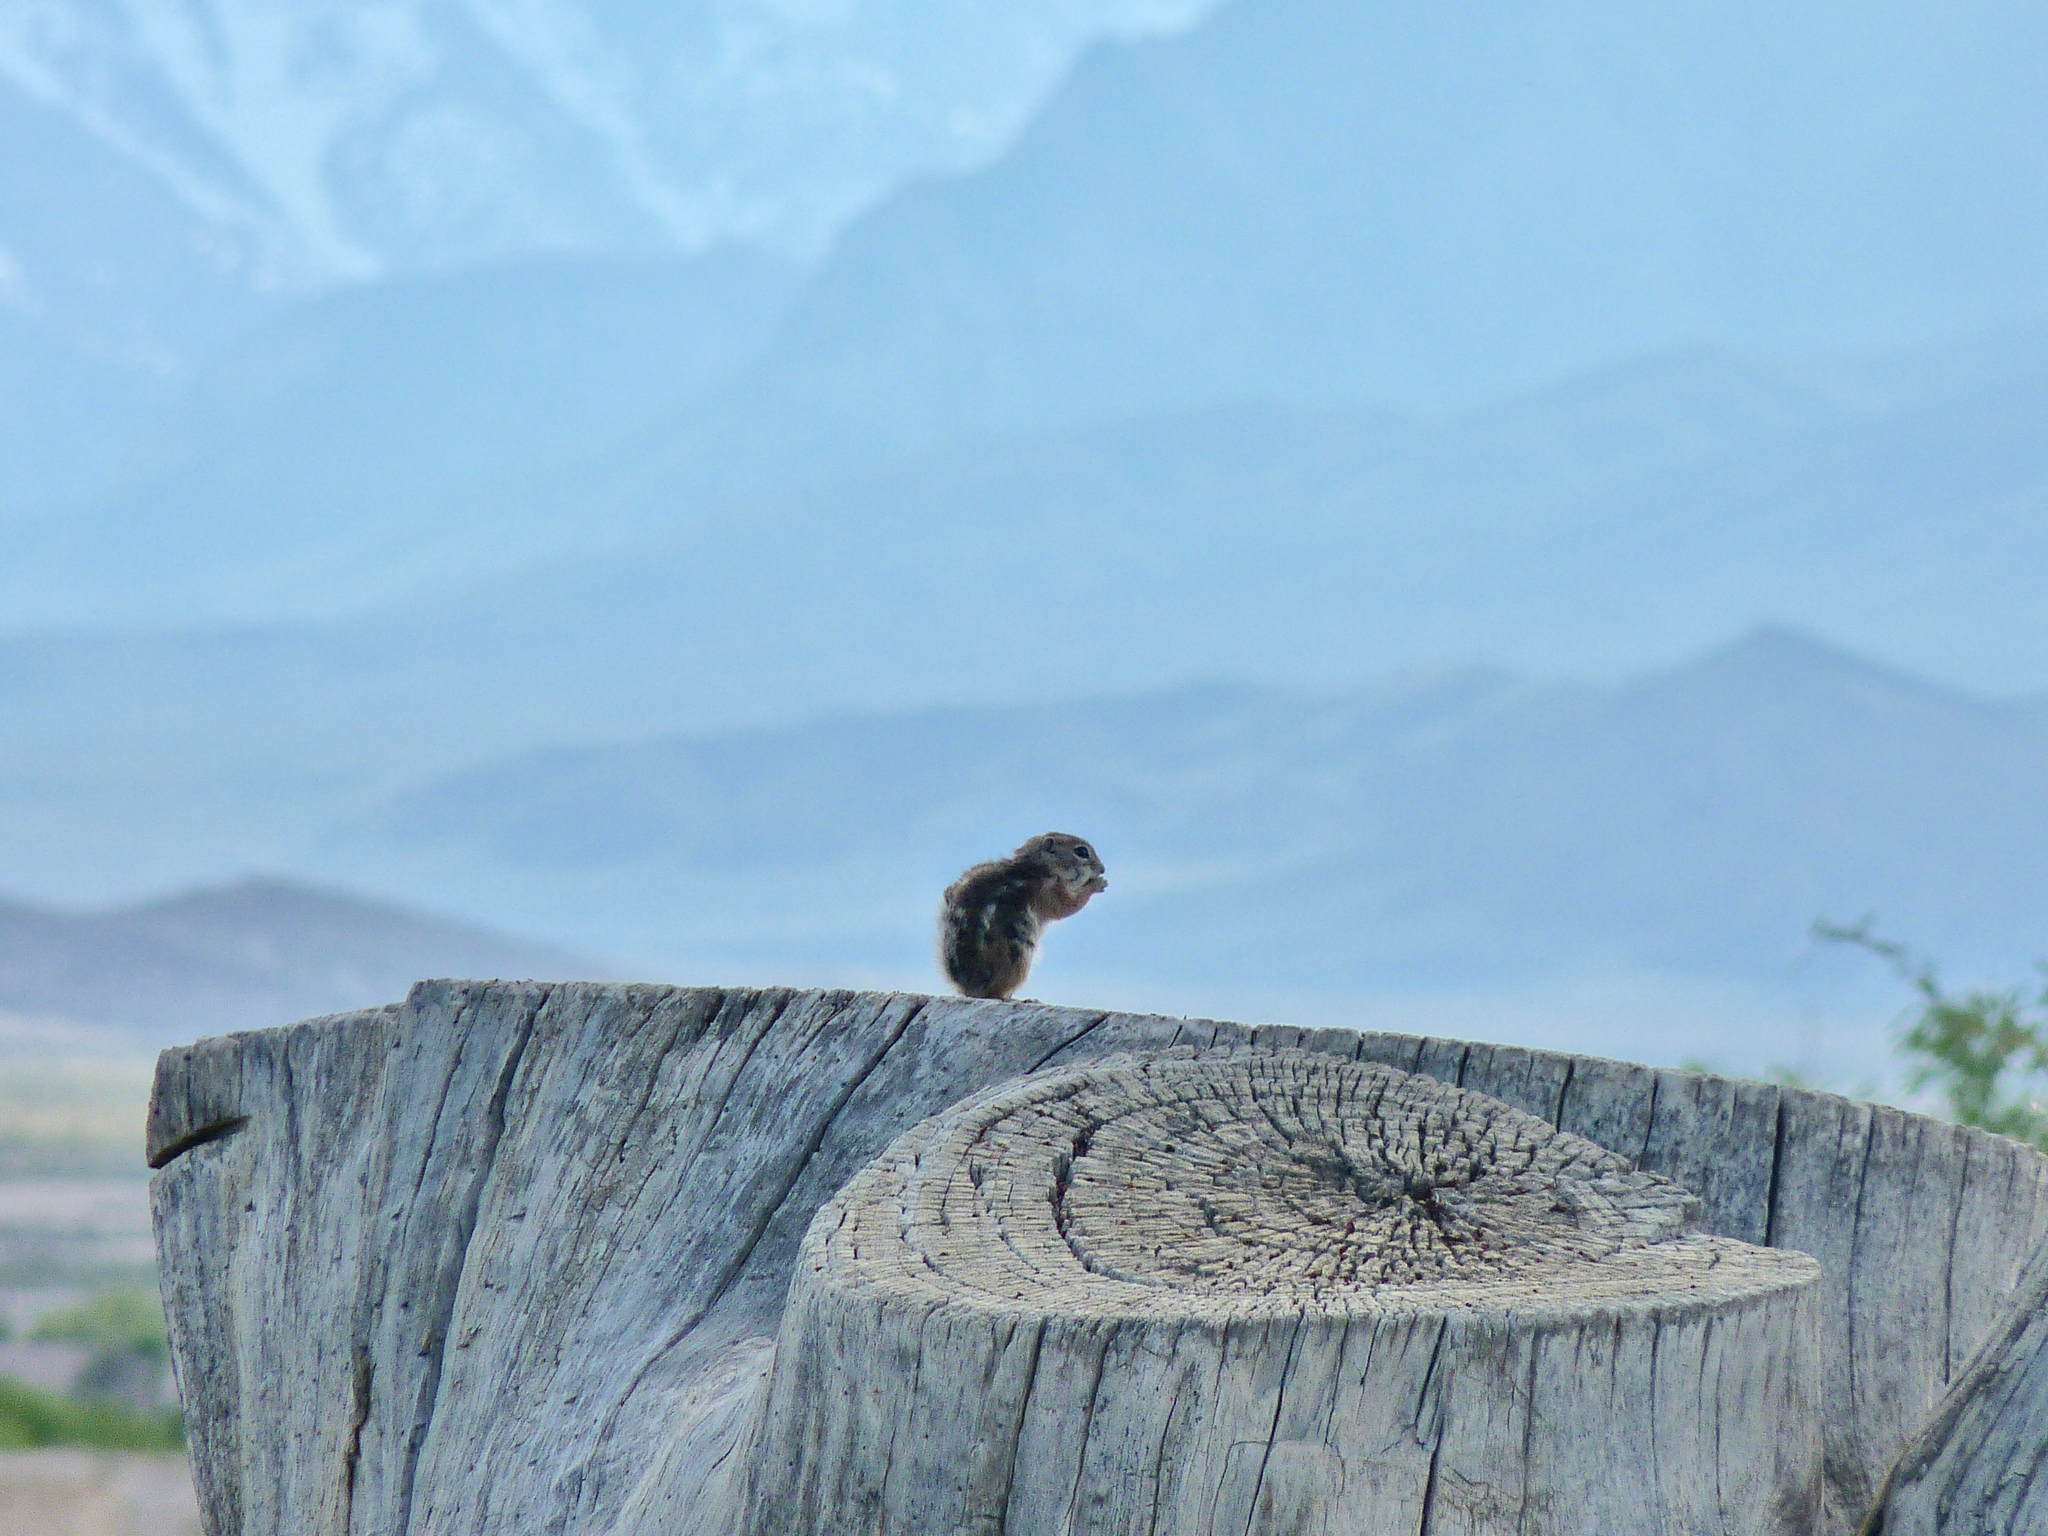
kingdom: Animalia
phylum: Chordata
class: Mammalia
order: Rodentia
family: Sciuridae
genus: Ammospermophilus
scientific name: Ammospermophilus leucurus
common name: White-tailed antelope squirrel
